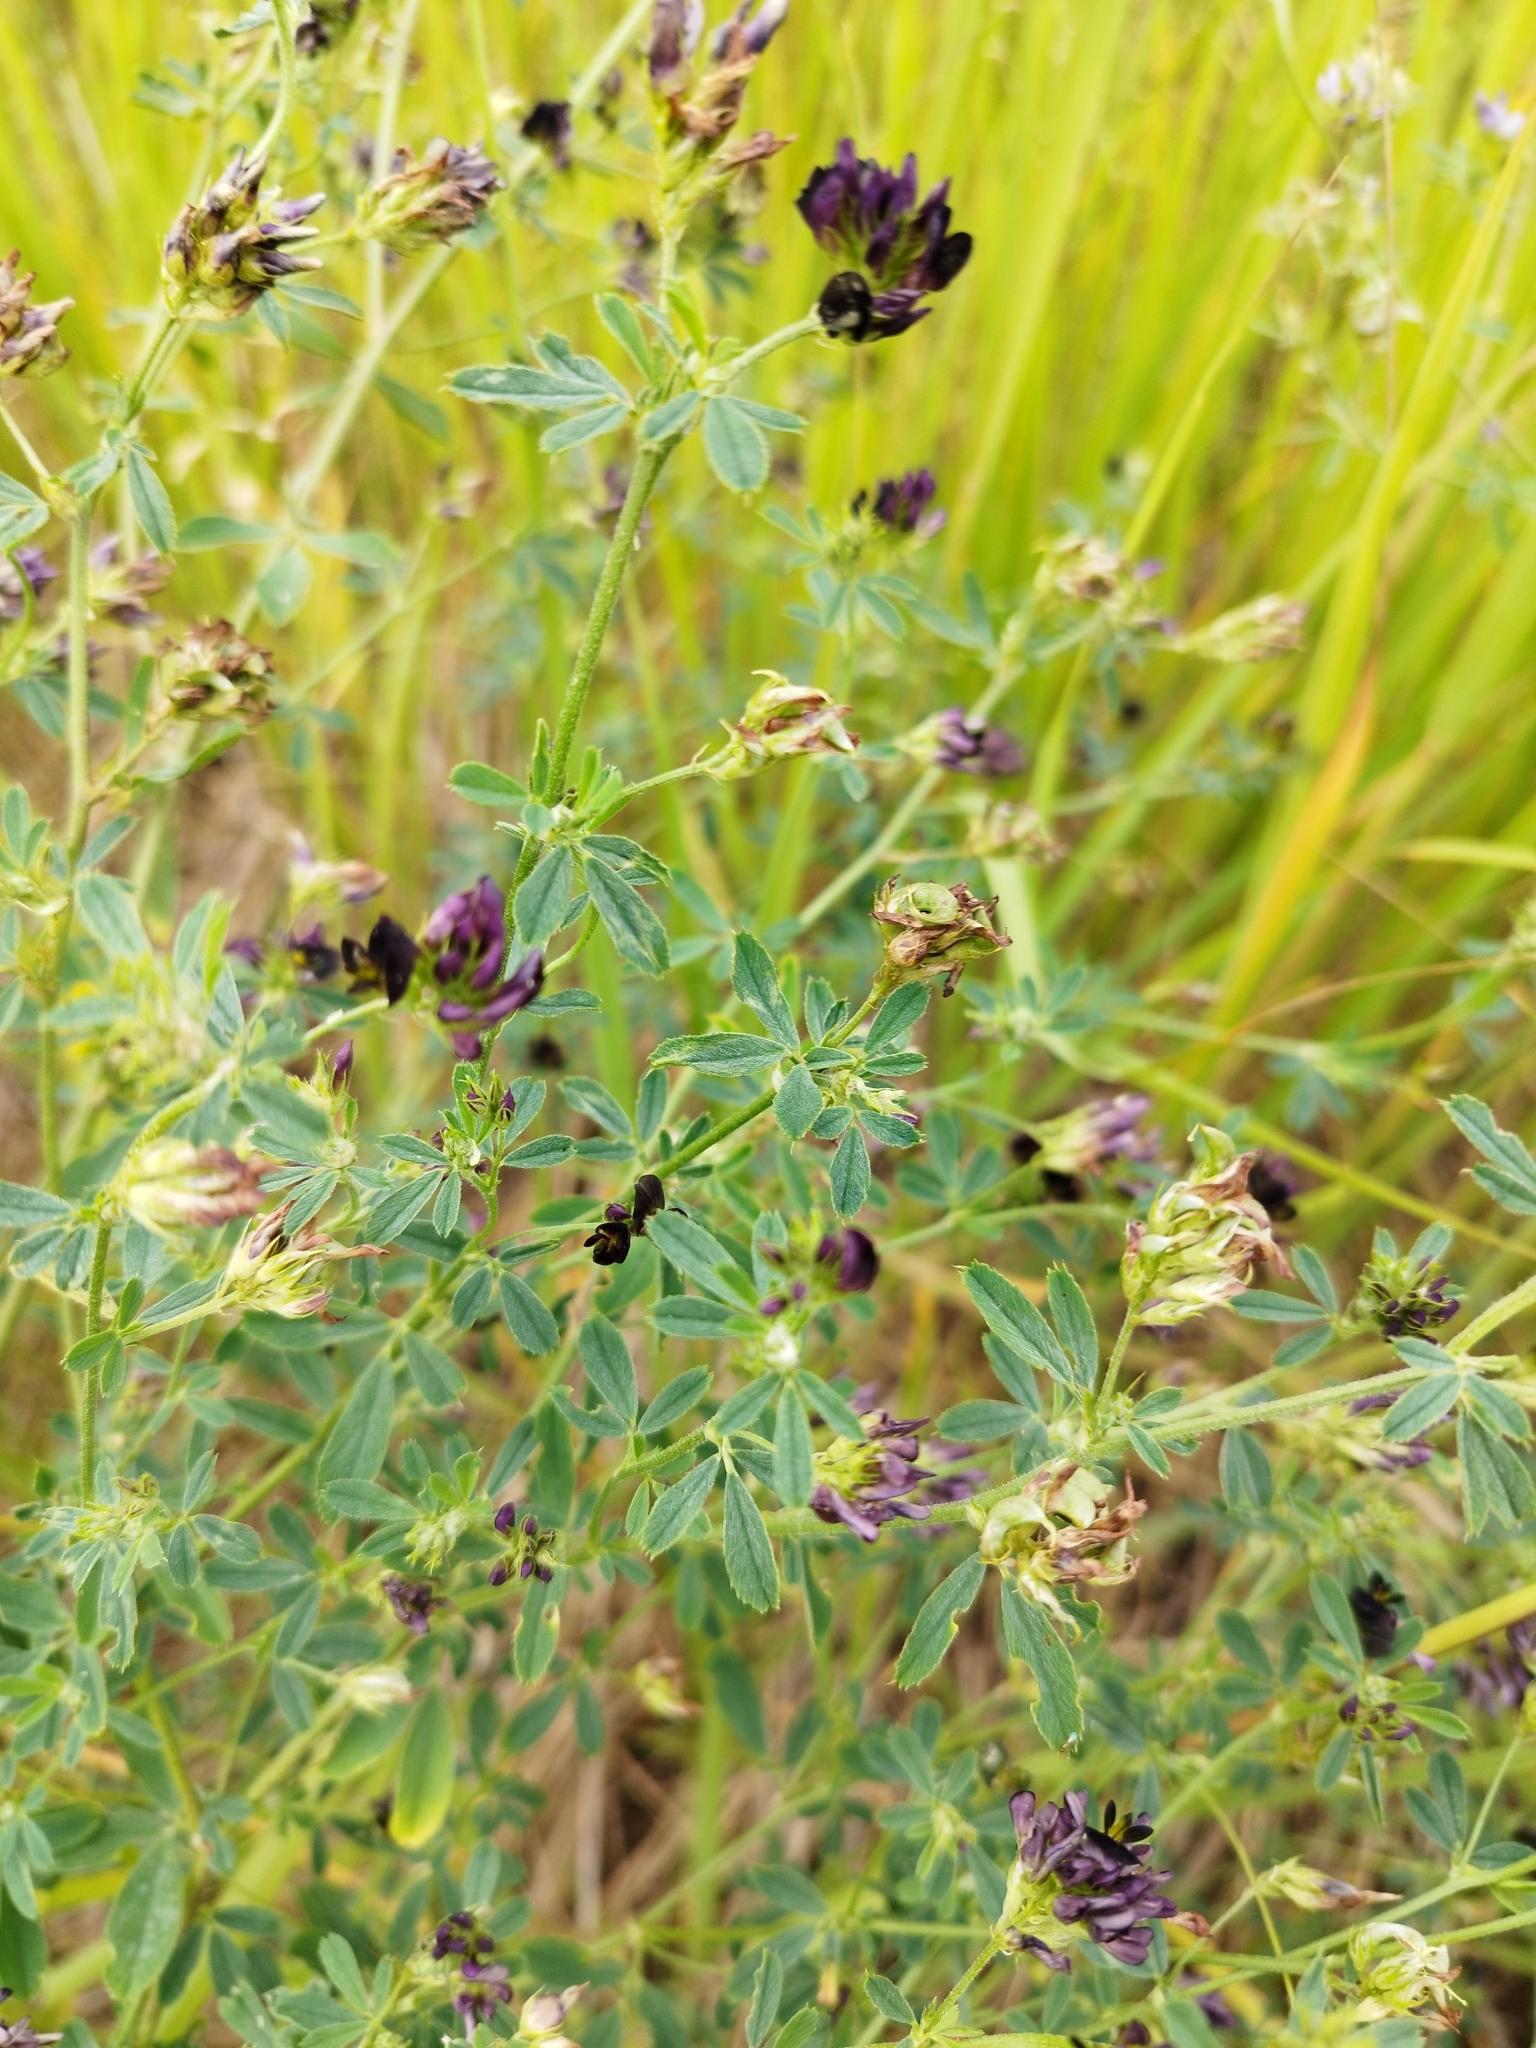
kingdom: Plantae
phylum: Tracheophyta
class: Magnoliopsida
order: Fabales
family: Fabaceae
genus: Medicago
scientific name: Medicago varia
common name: Sand lucerne
